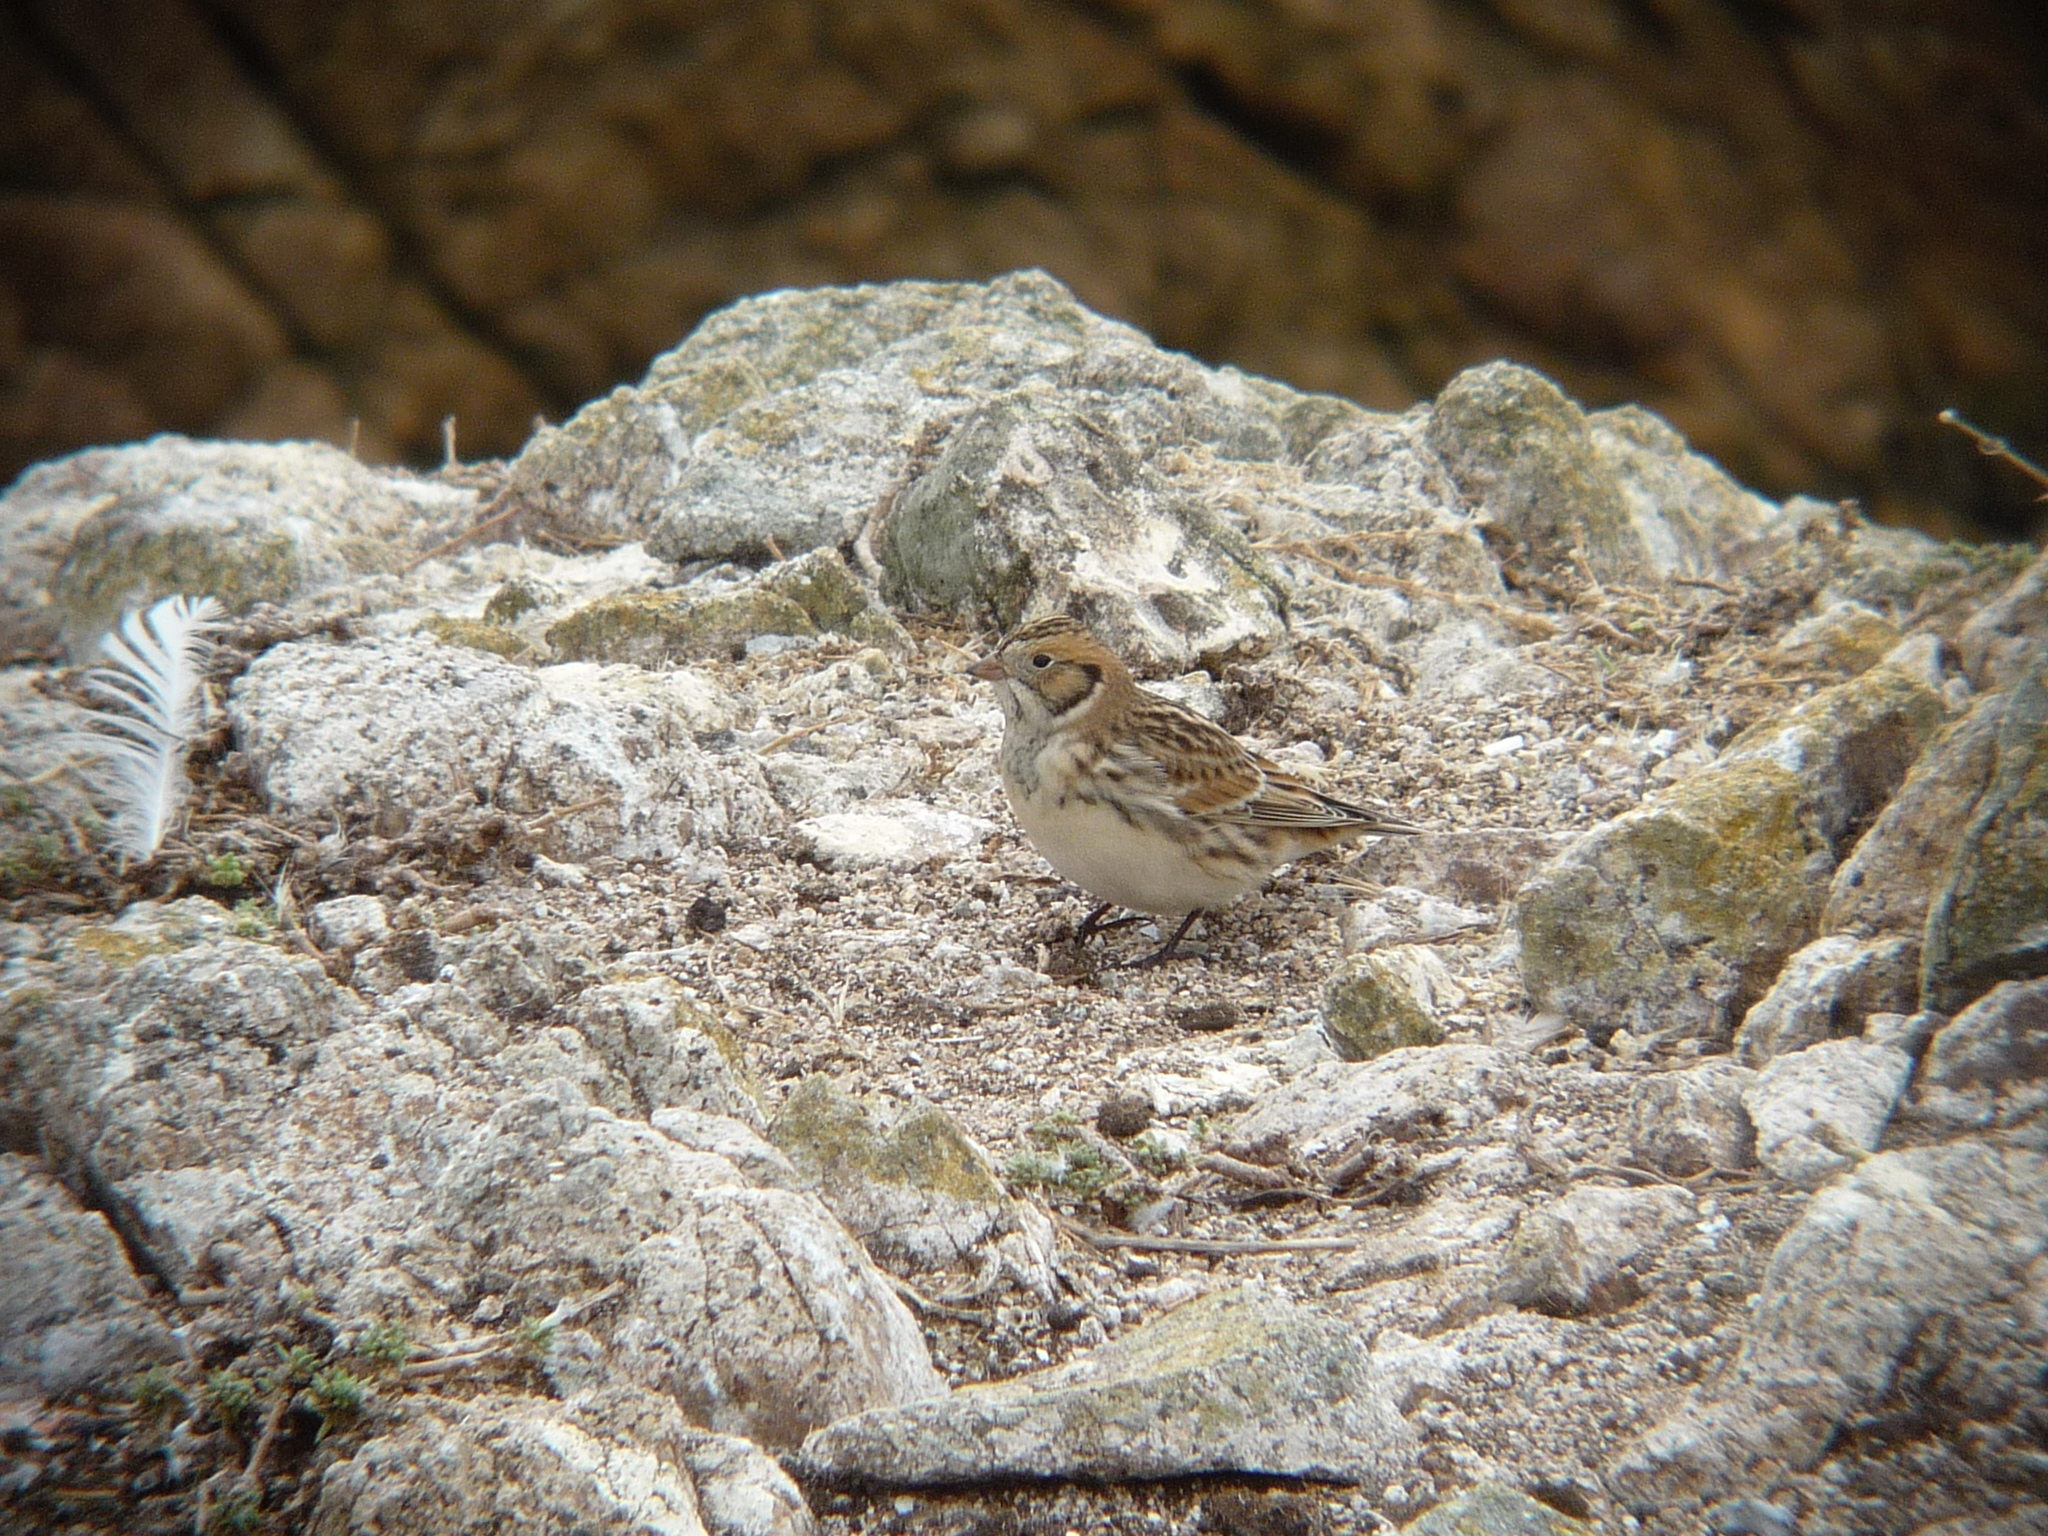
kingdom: Animalia
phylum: Chordata
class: Aves
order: Passeriformes
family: Calcariidae
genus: Calcarius
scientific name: Calcarius lapponicus
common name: Lapland longspur
